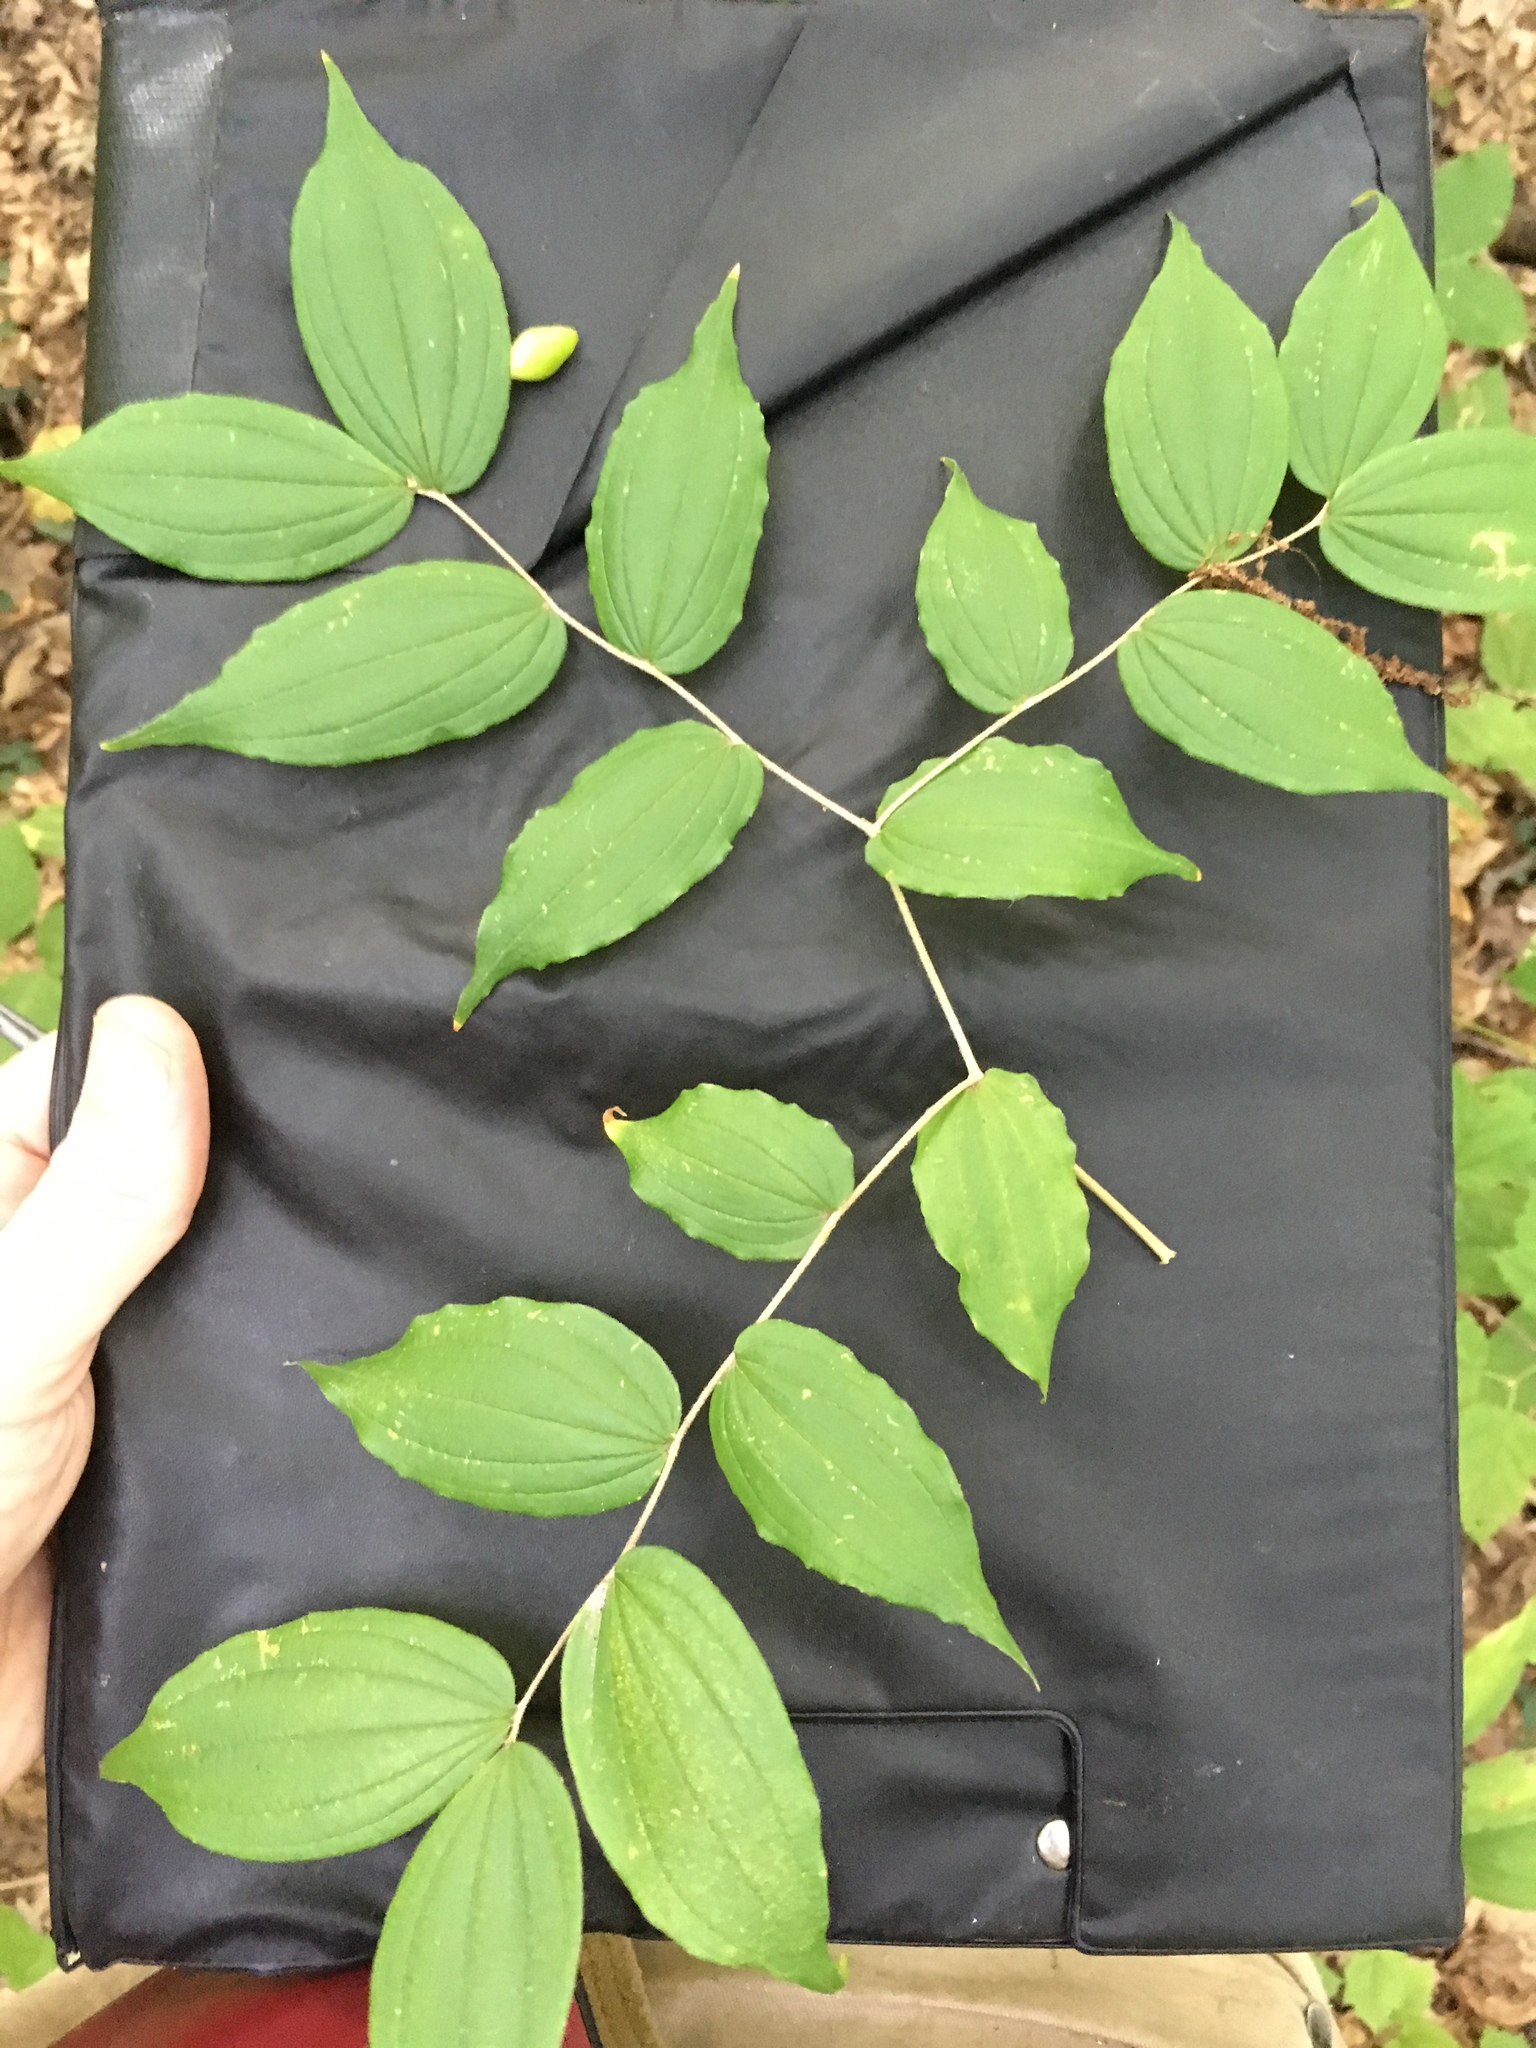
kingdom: Plantae
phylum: Tracheophyta
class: Liliopsida
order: Liliales
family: Liliaceae
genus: Prosartes
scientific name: Prosartes lanuginosa
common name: Hairy mandarin
